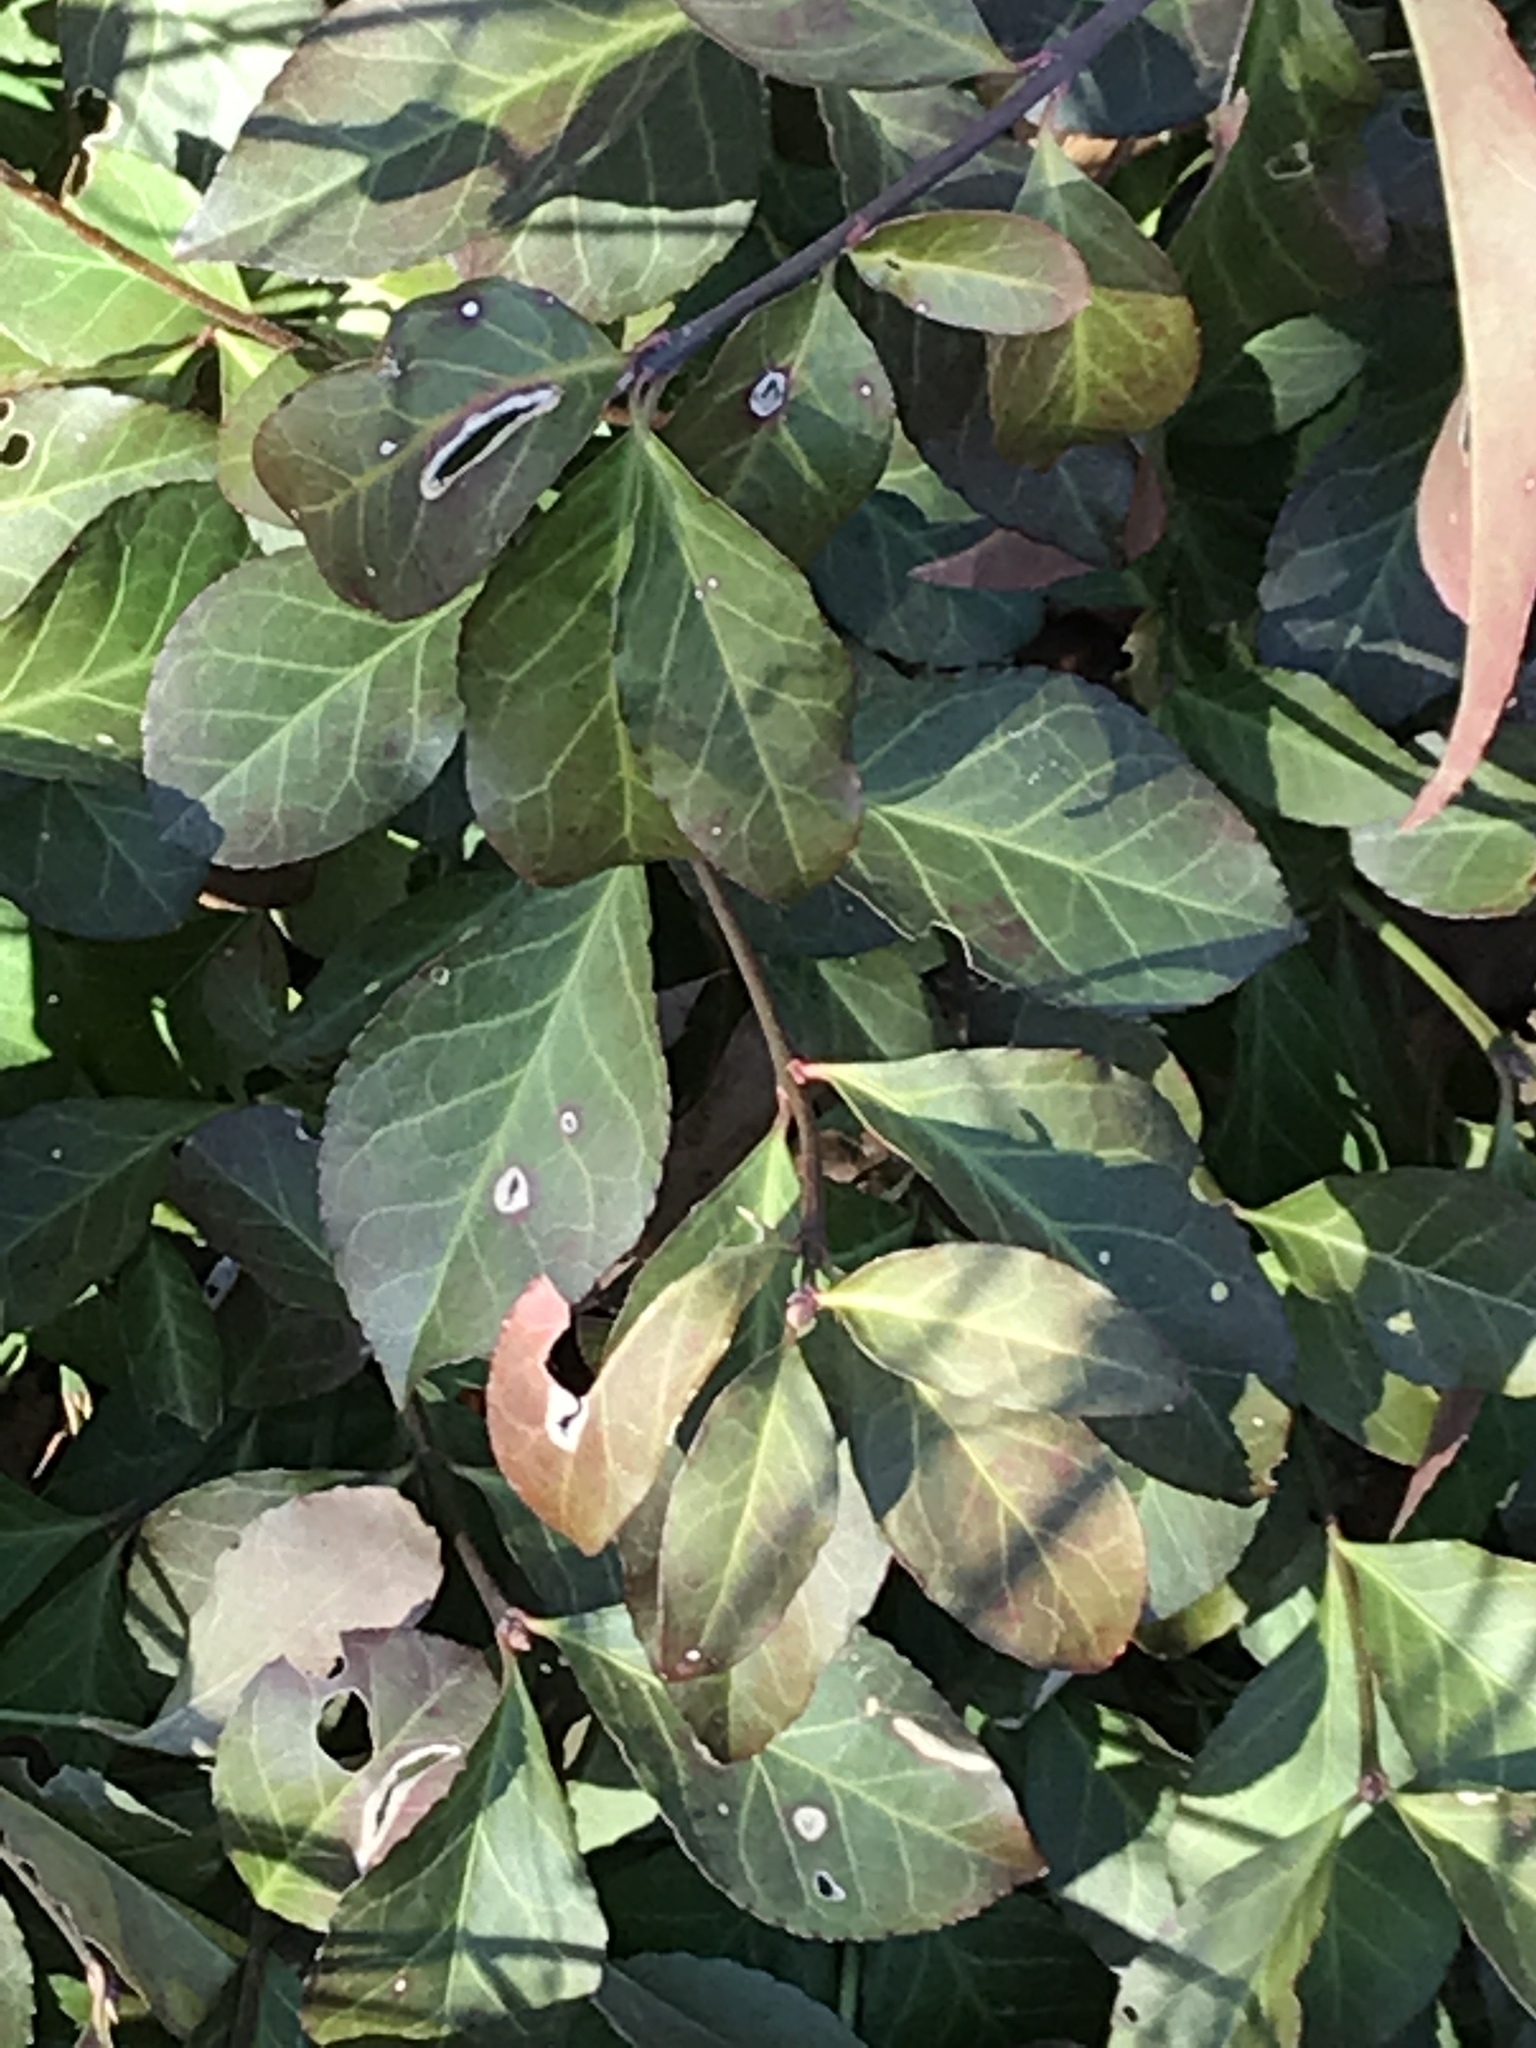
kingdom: Plantae
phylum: Tracheophyta
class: Magnoliopsida
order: Celastrales
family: Celastraceae
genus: Euonymus
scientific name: Euonymus fortunei
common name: Climbing euonymus
